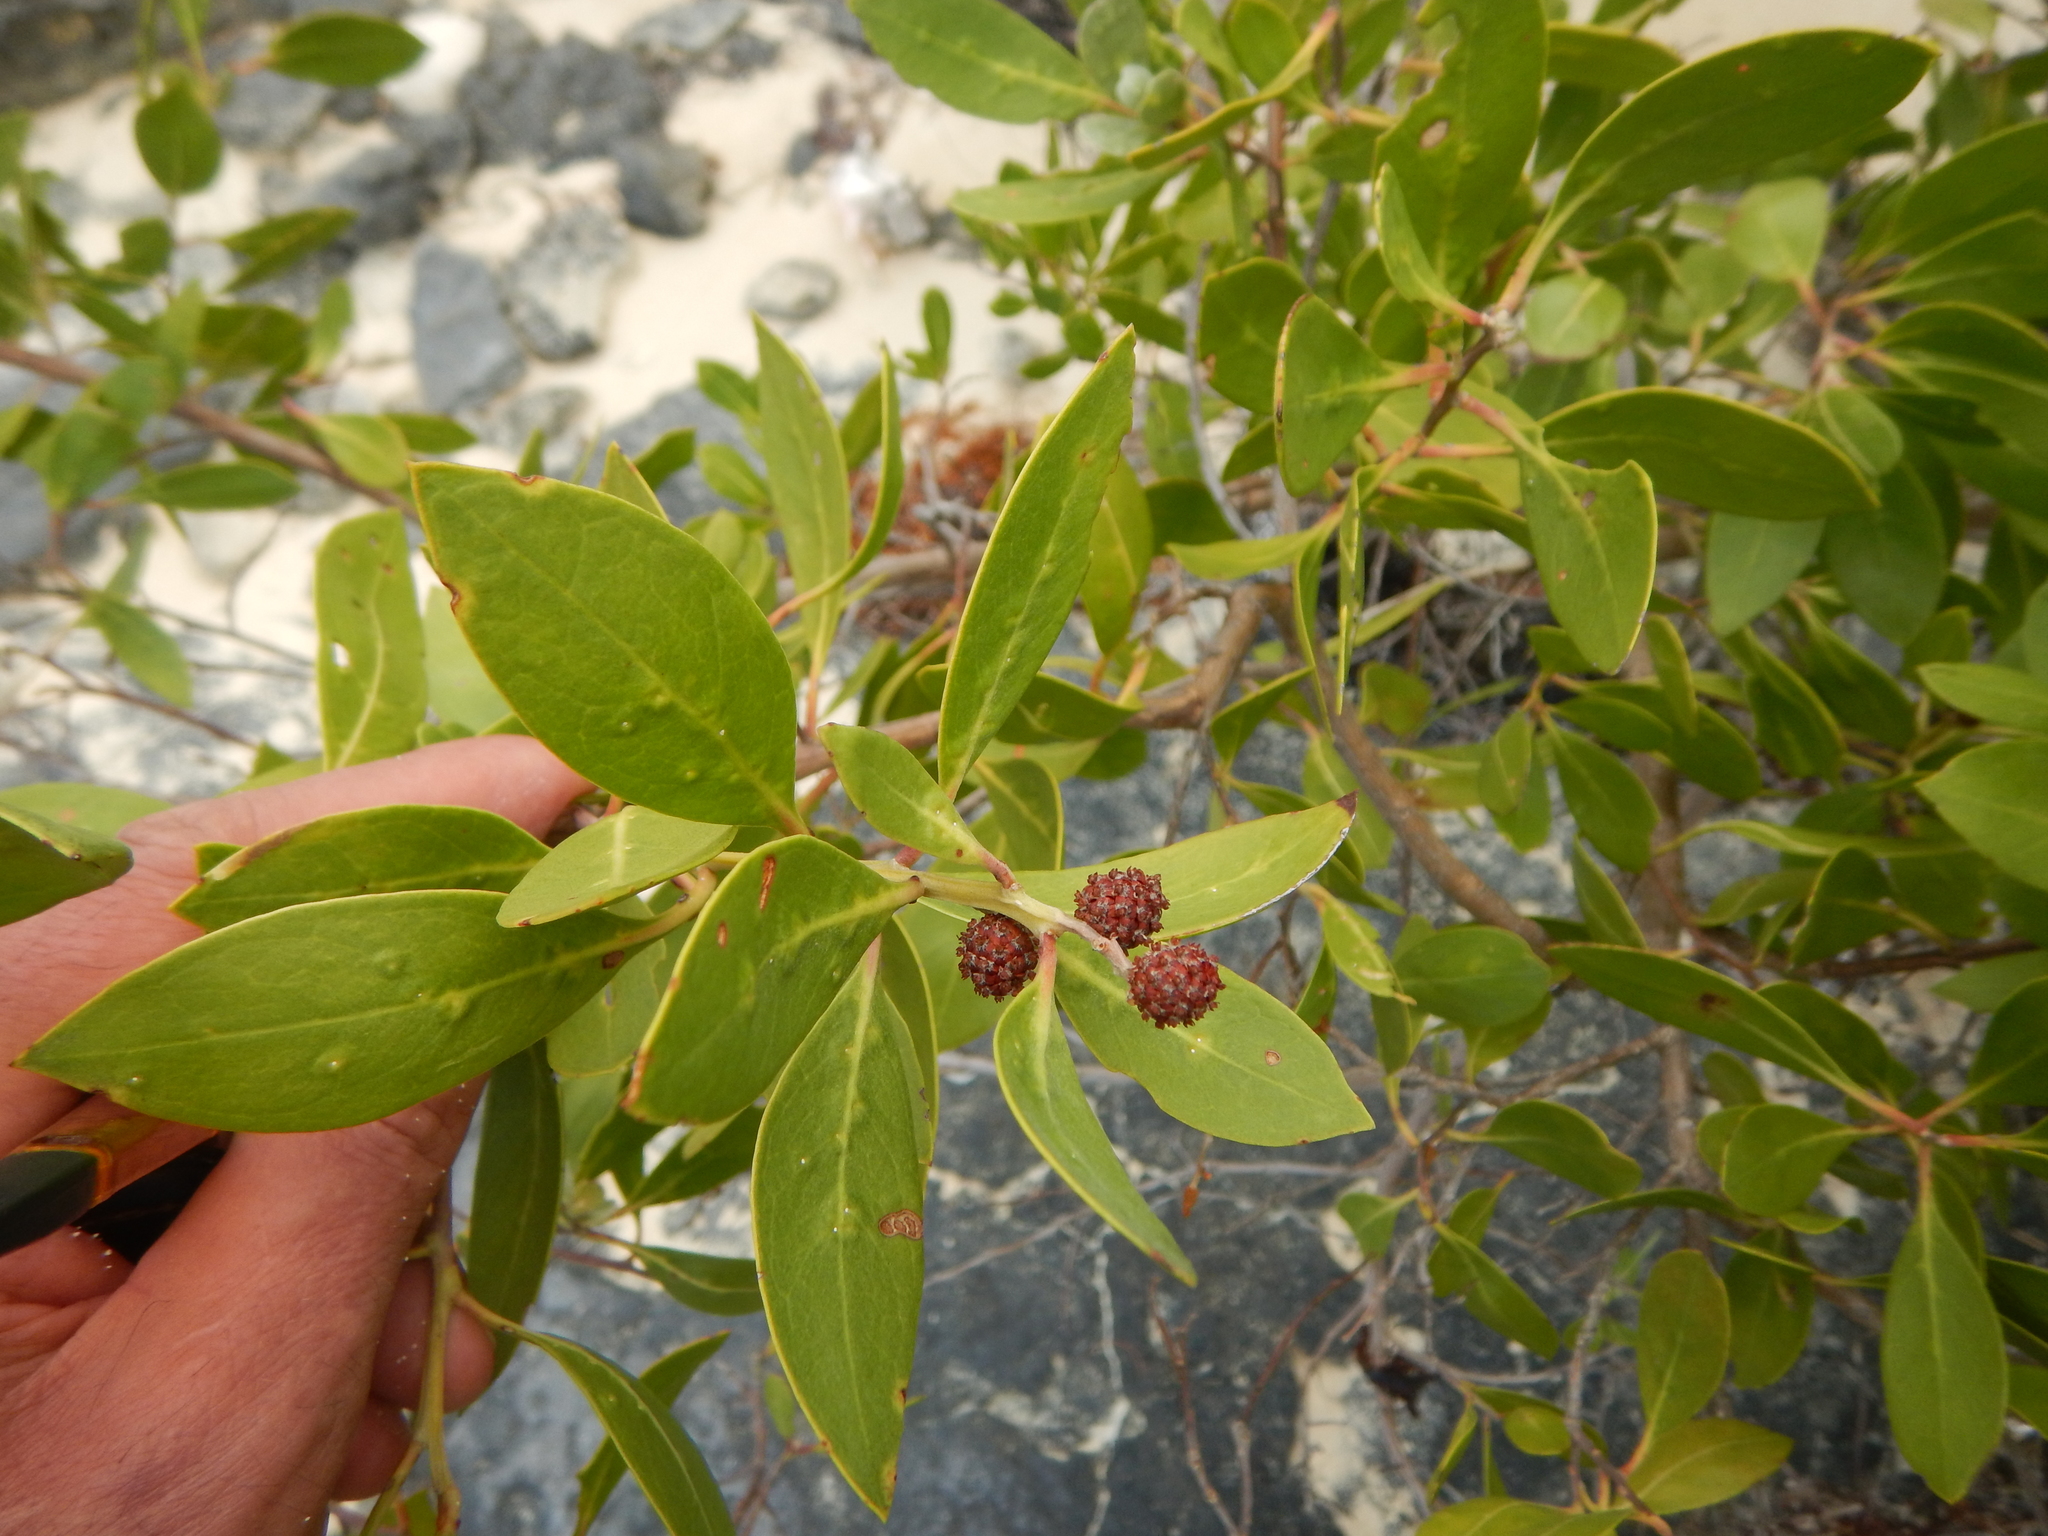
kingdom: Plantae
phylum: Tracheophyta
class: Magnoliopsida
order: Myrtales
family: Combretaceae
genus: Conocarpus
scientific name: Conocarpus erectus
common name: Button mangrove
